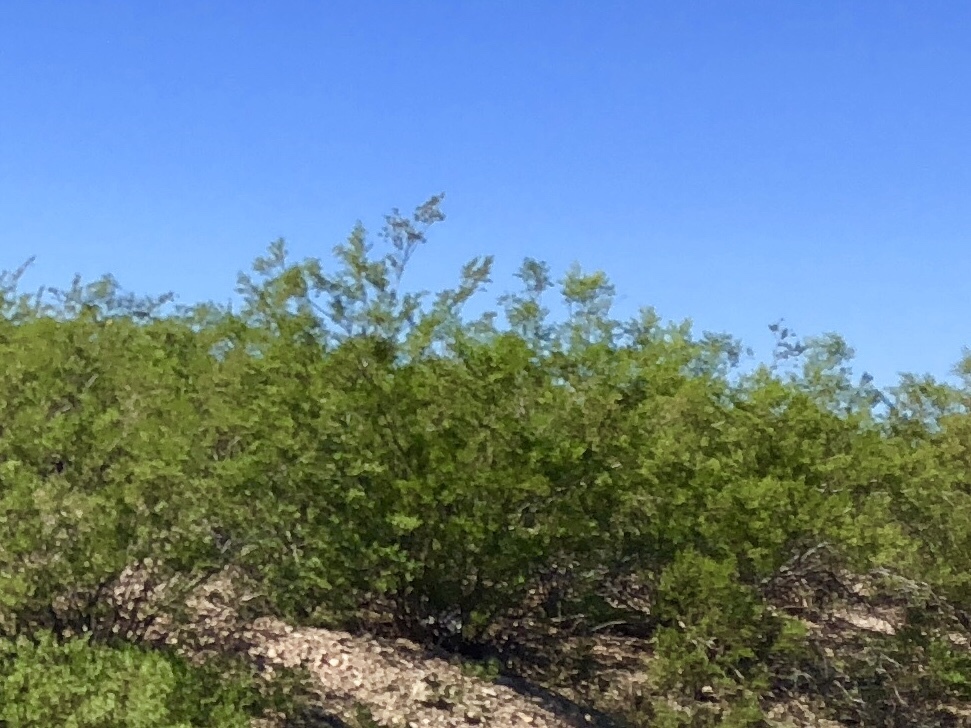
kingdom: Plantae
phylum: Tracheophyta
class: Magnoliopsida
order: Zygophyllales
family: Zygophyllaceae
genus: Larrea
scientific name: Larrea tridentata
